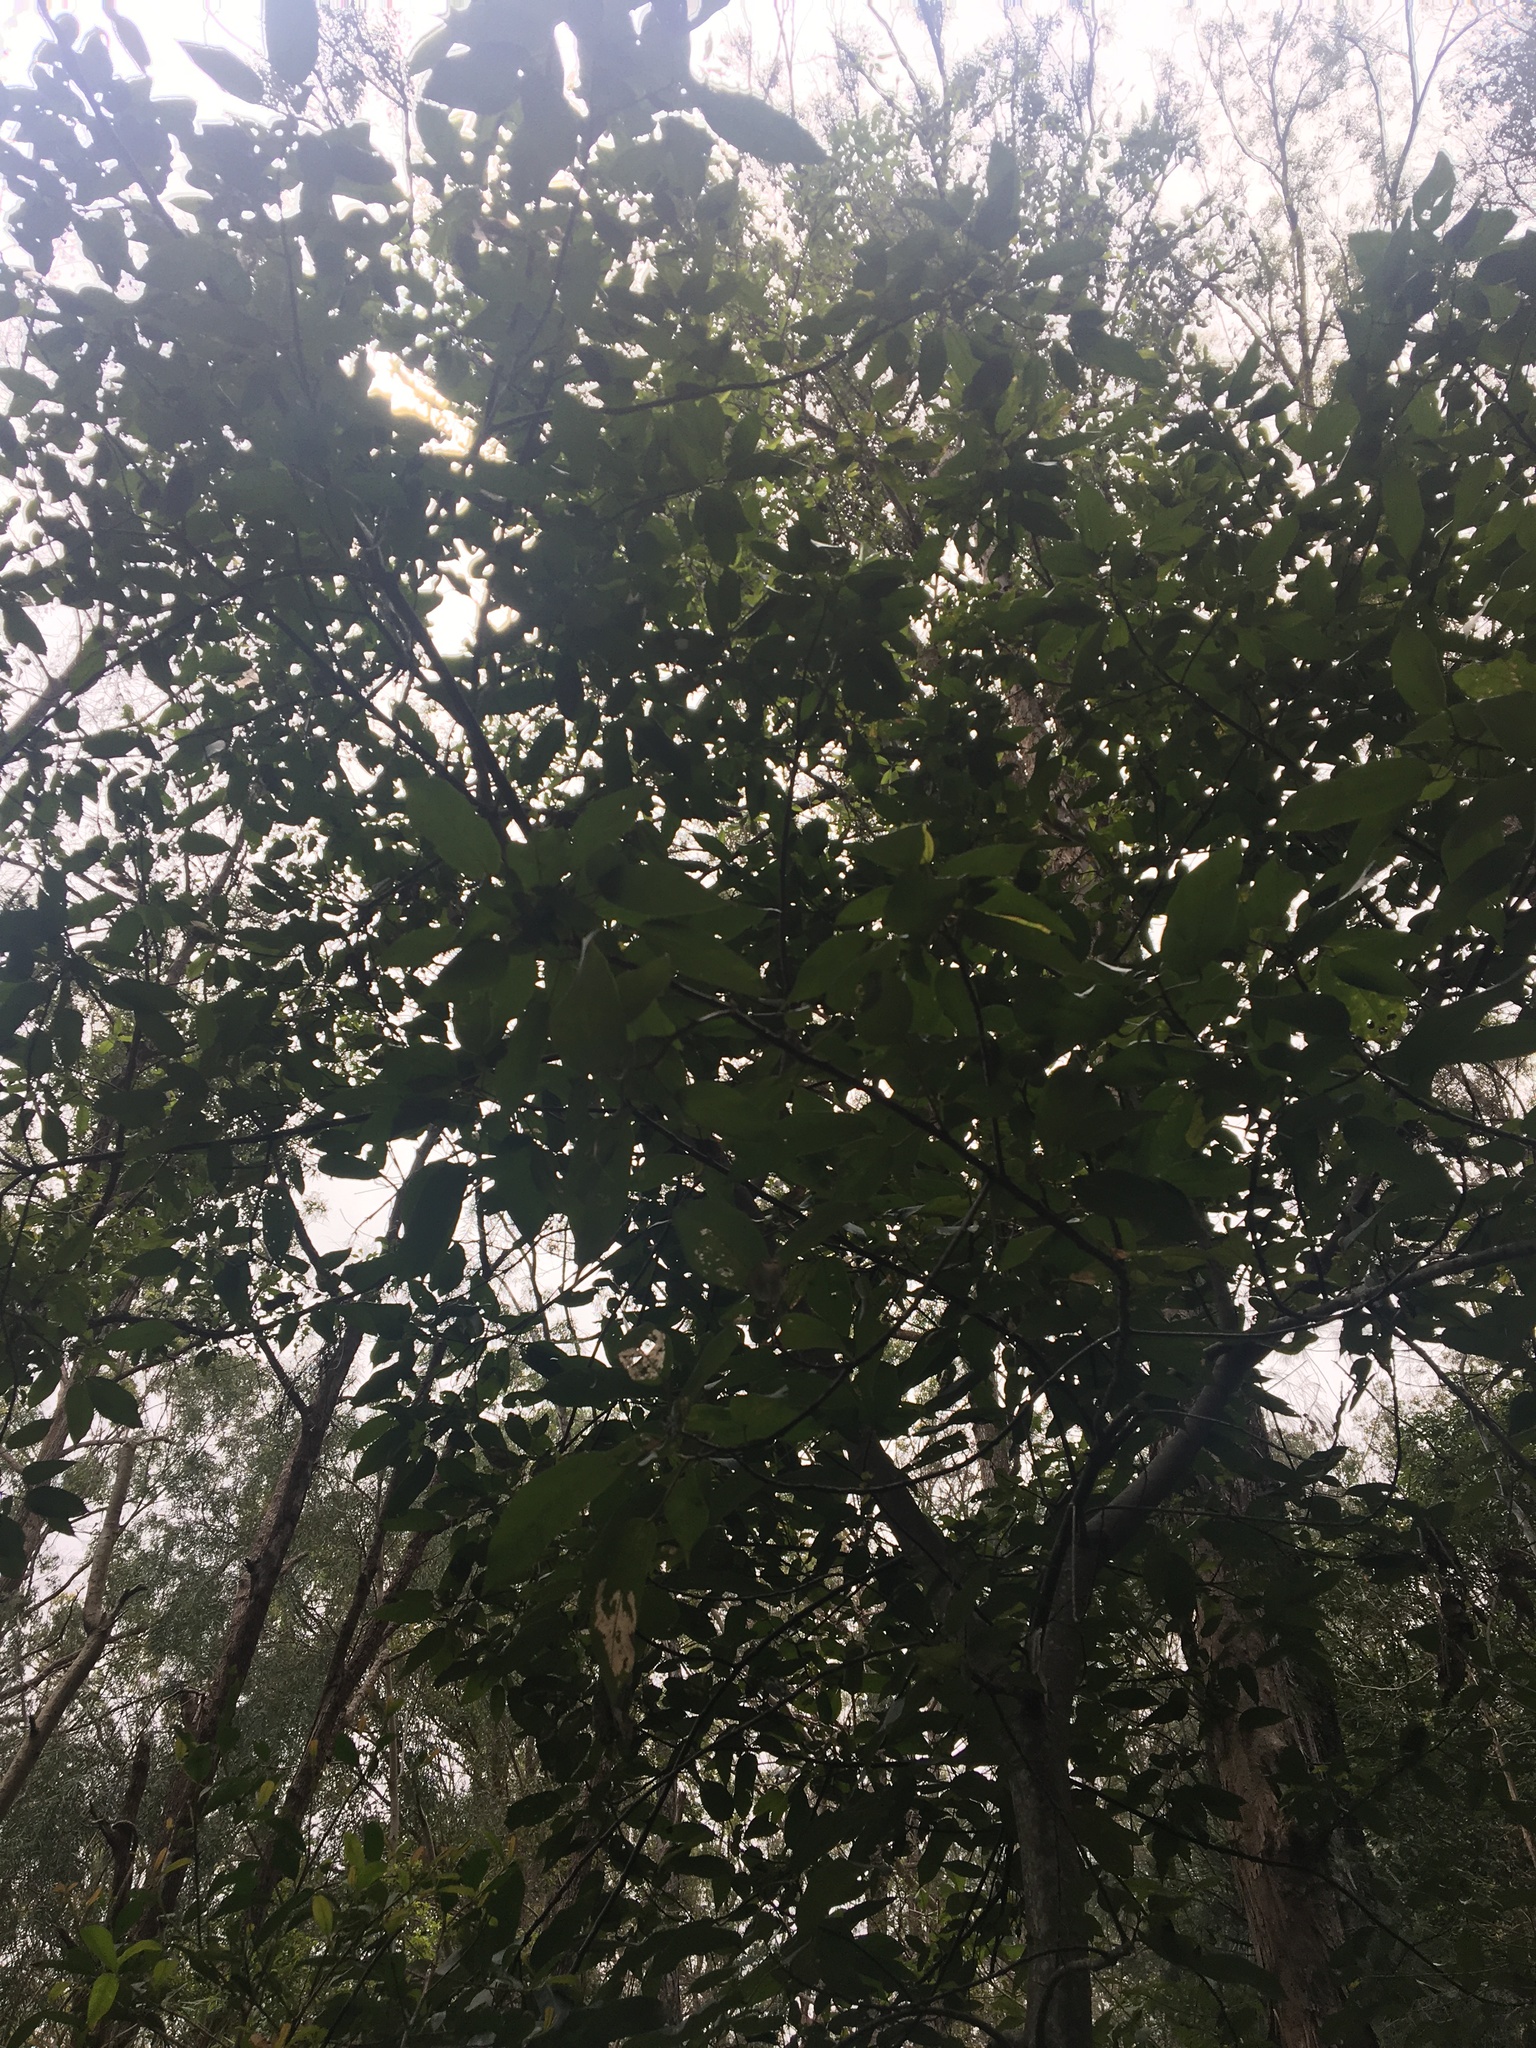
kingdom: Plantae
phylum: Tracheophyta
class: Magnoliopsida
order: Malpighiales
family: Euphorbiaceae
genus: Mallotus
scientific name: Mallotus philippensis
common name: Kamala tree
